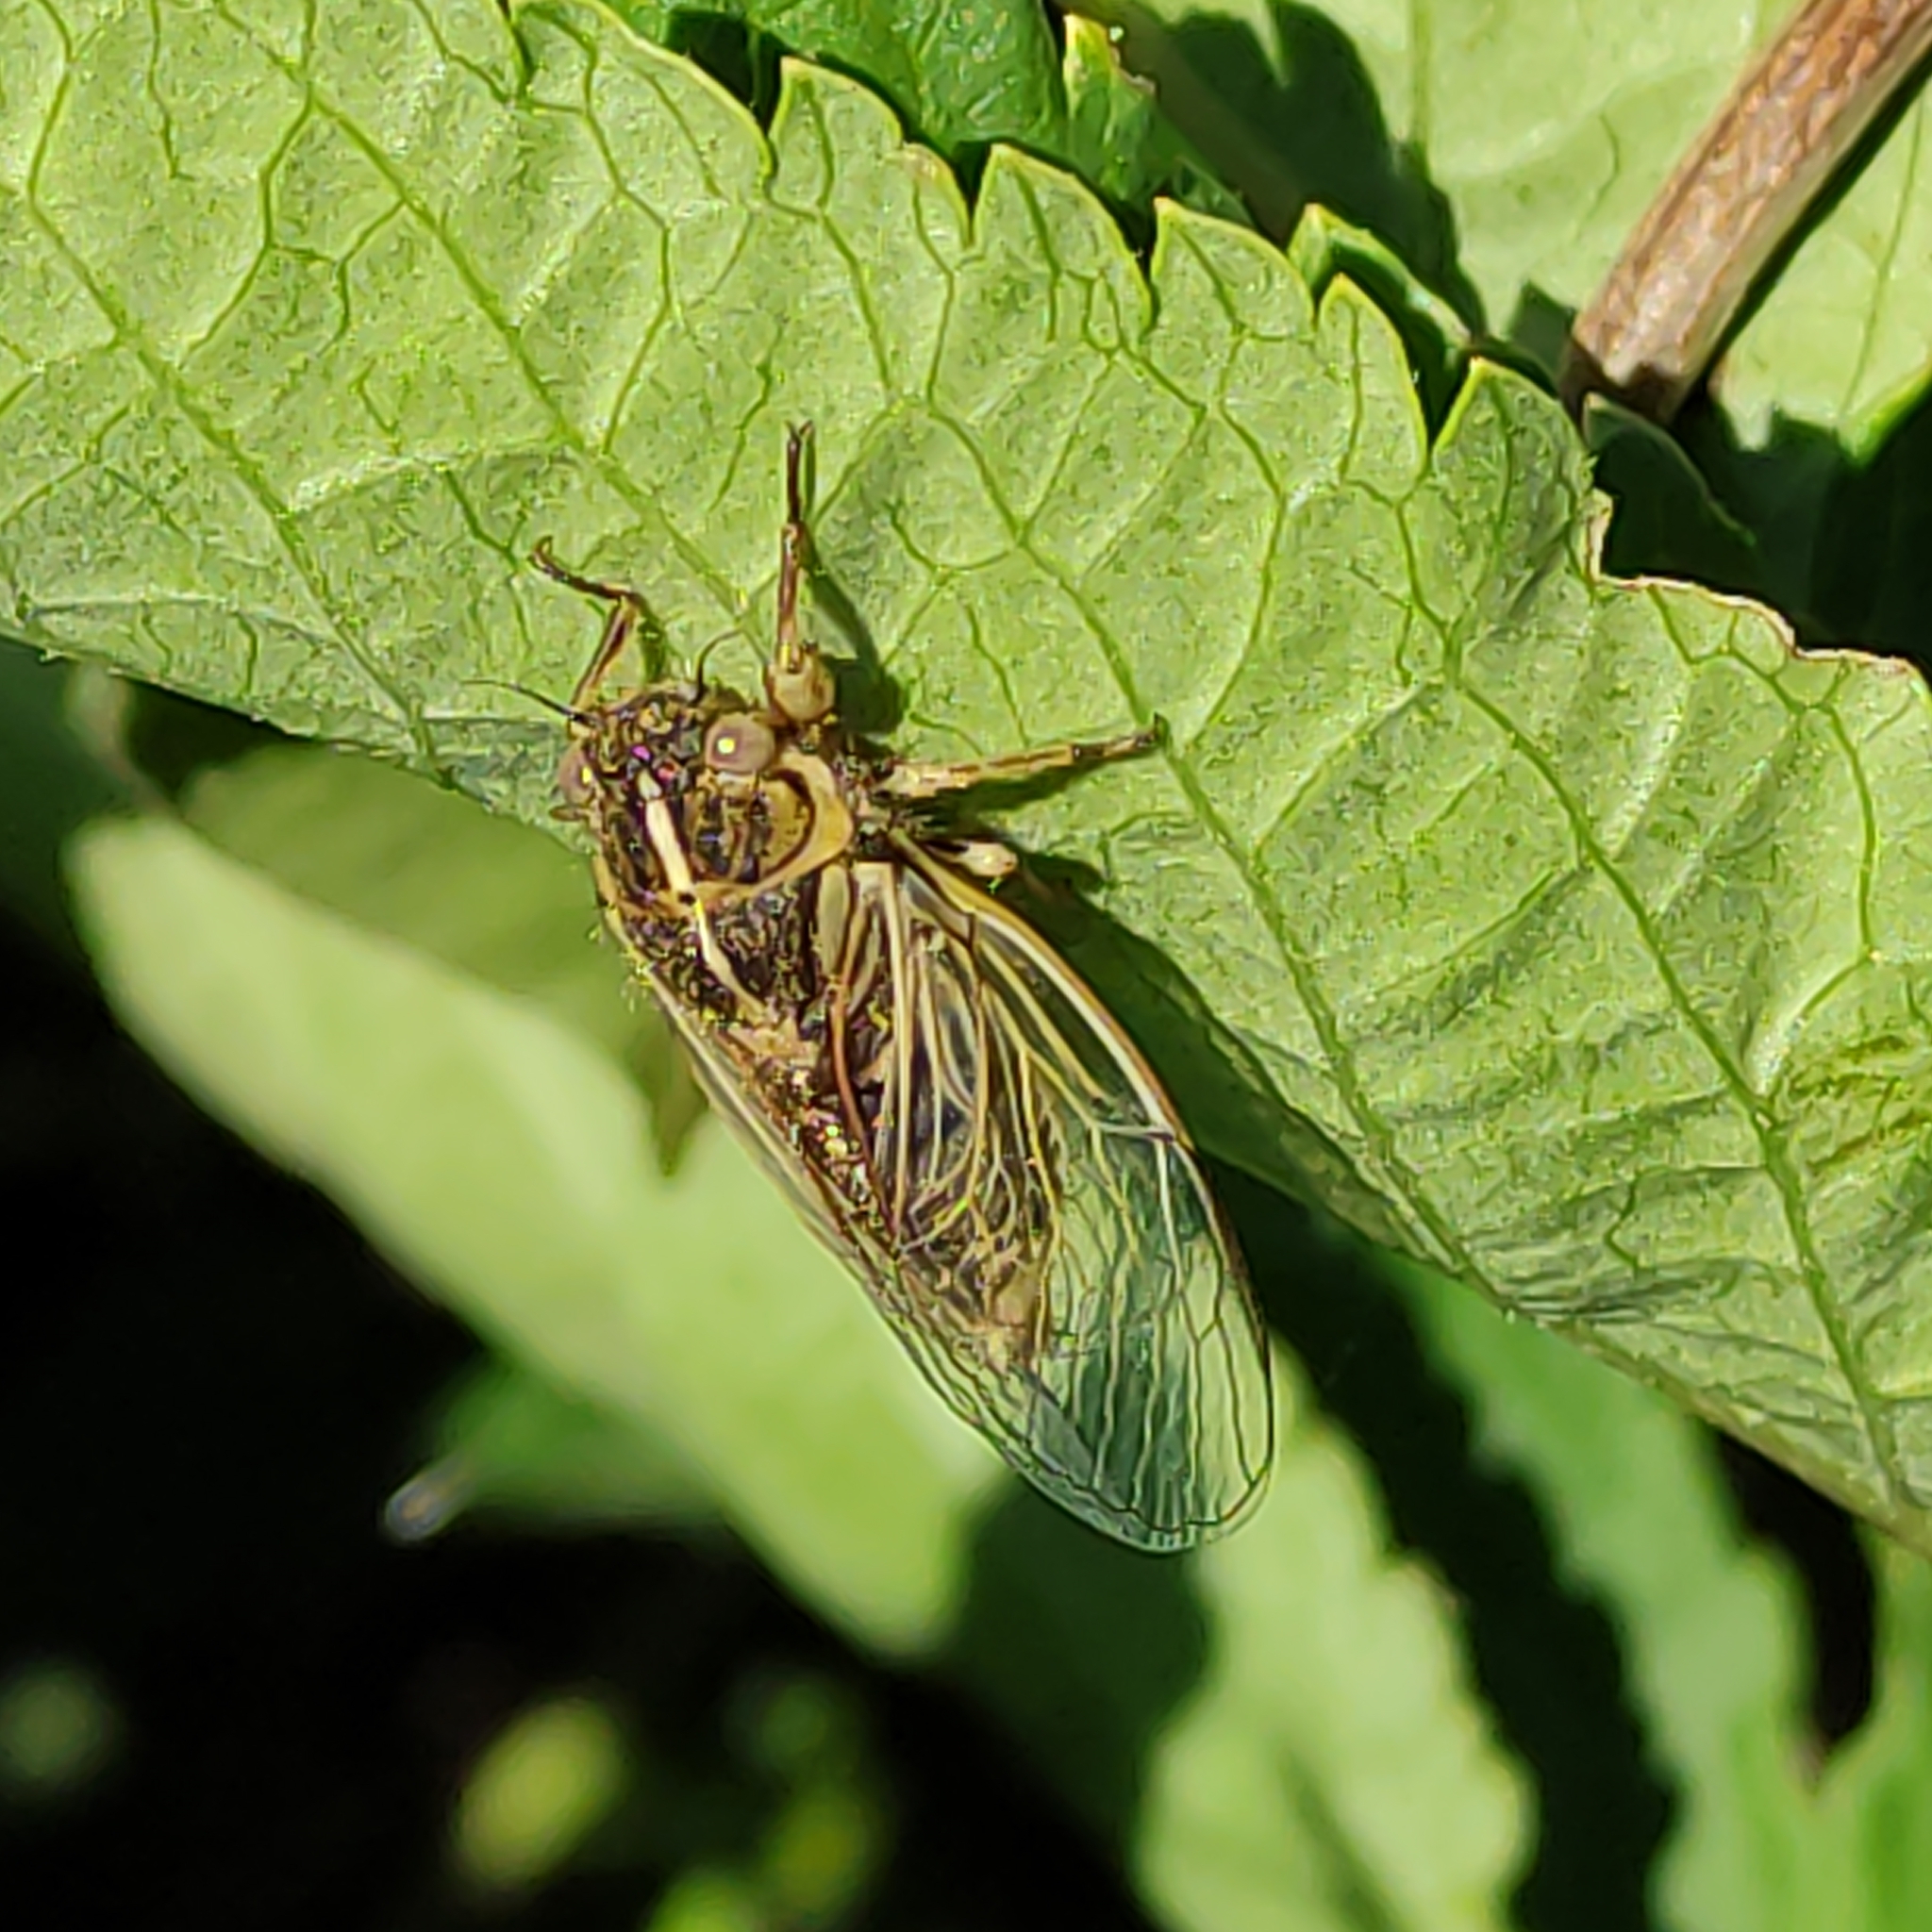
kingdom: Animalia
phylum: Arthropoda
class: Insecta
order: Hemiptera
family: Cicadidae
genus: Kikihia
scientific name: Kikihia angusta
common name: Tussock cicada
